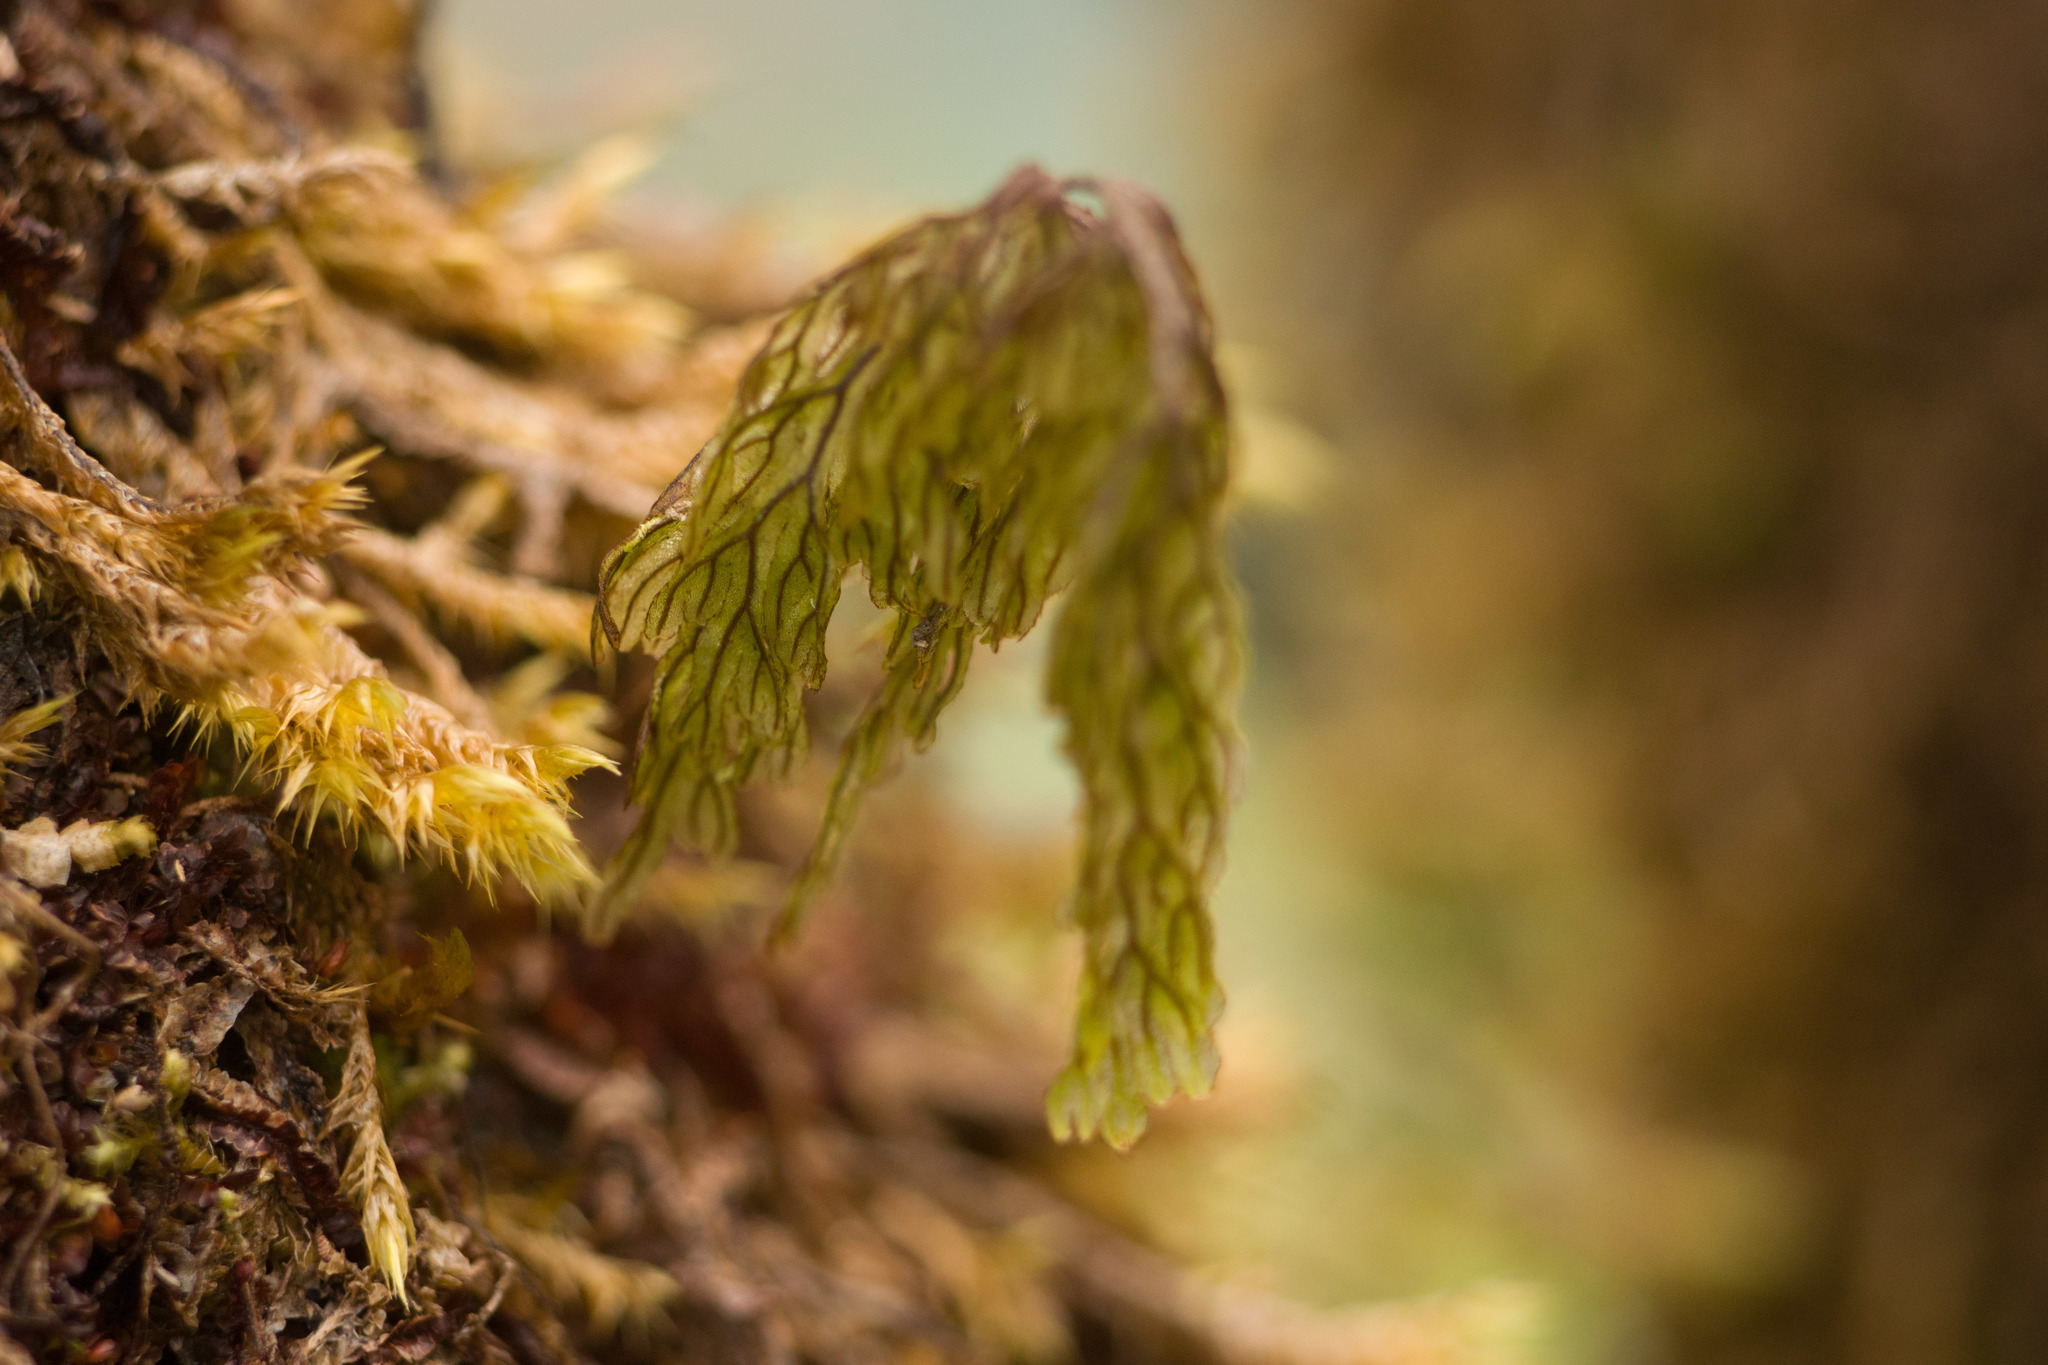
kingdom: Plantae
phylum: Tracheophyta
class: Polypodiopsida
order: Hymenophyllales
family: Hymenophyllaceae
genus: Hymenophyllum
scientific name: Hymenophyllum recurvum
